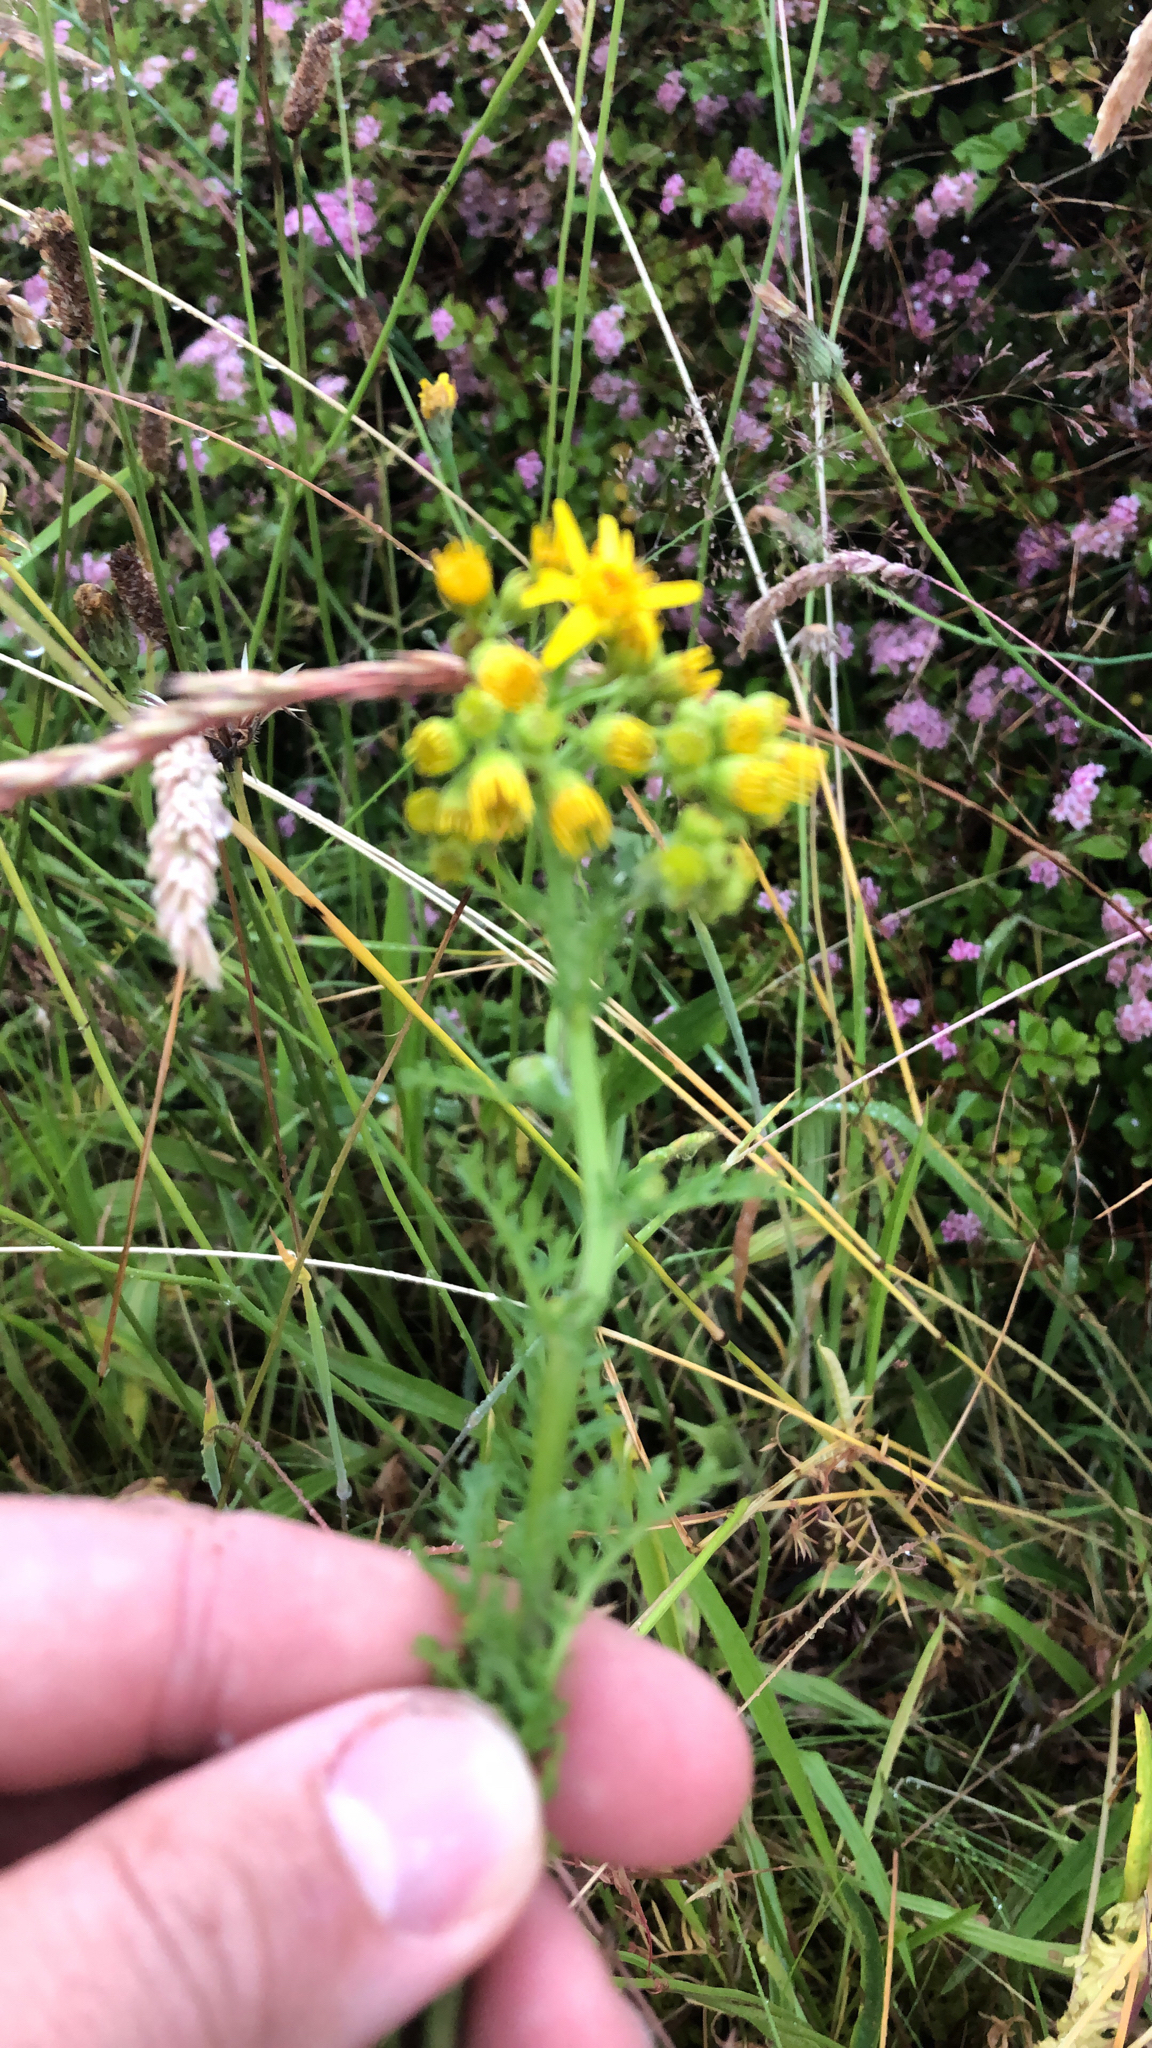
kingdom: Plantae
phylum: Tracheophyta
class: Magnoliopsida
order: Asterales
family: Asteraceae
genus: Jacobaea
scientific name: Jacobaea vulgaris
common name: Stinking willie
